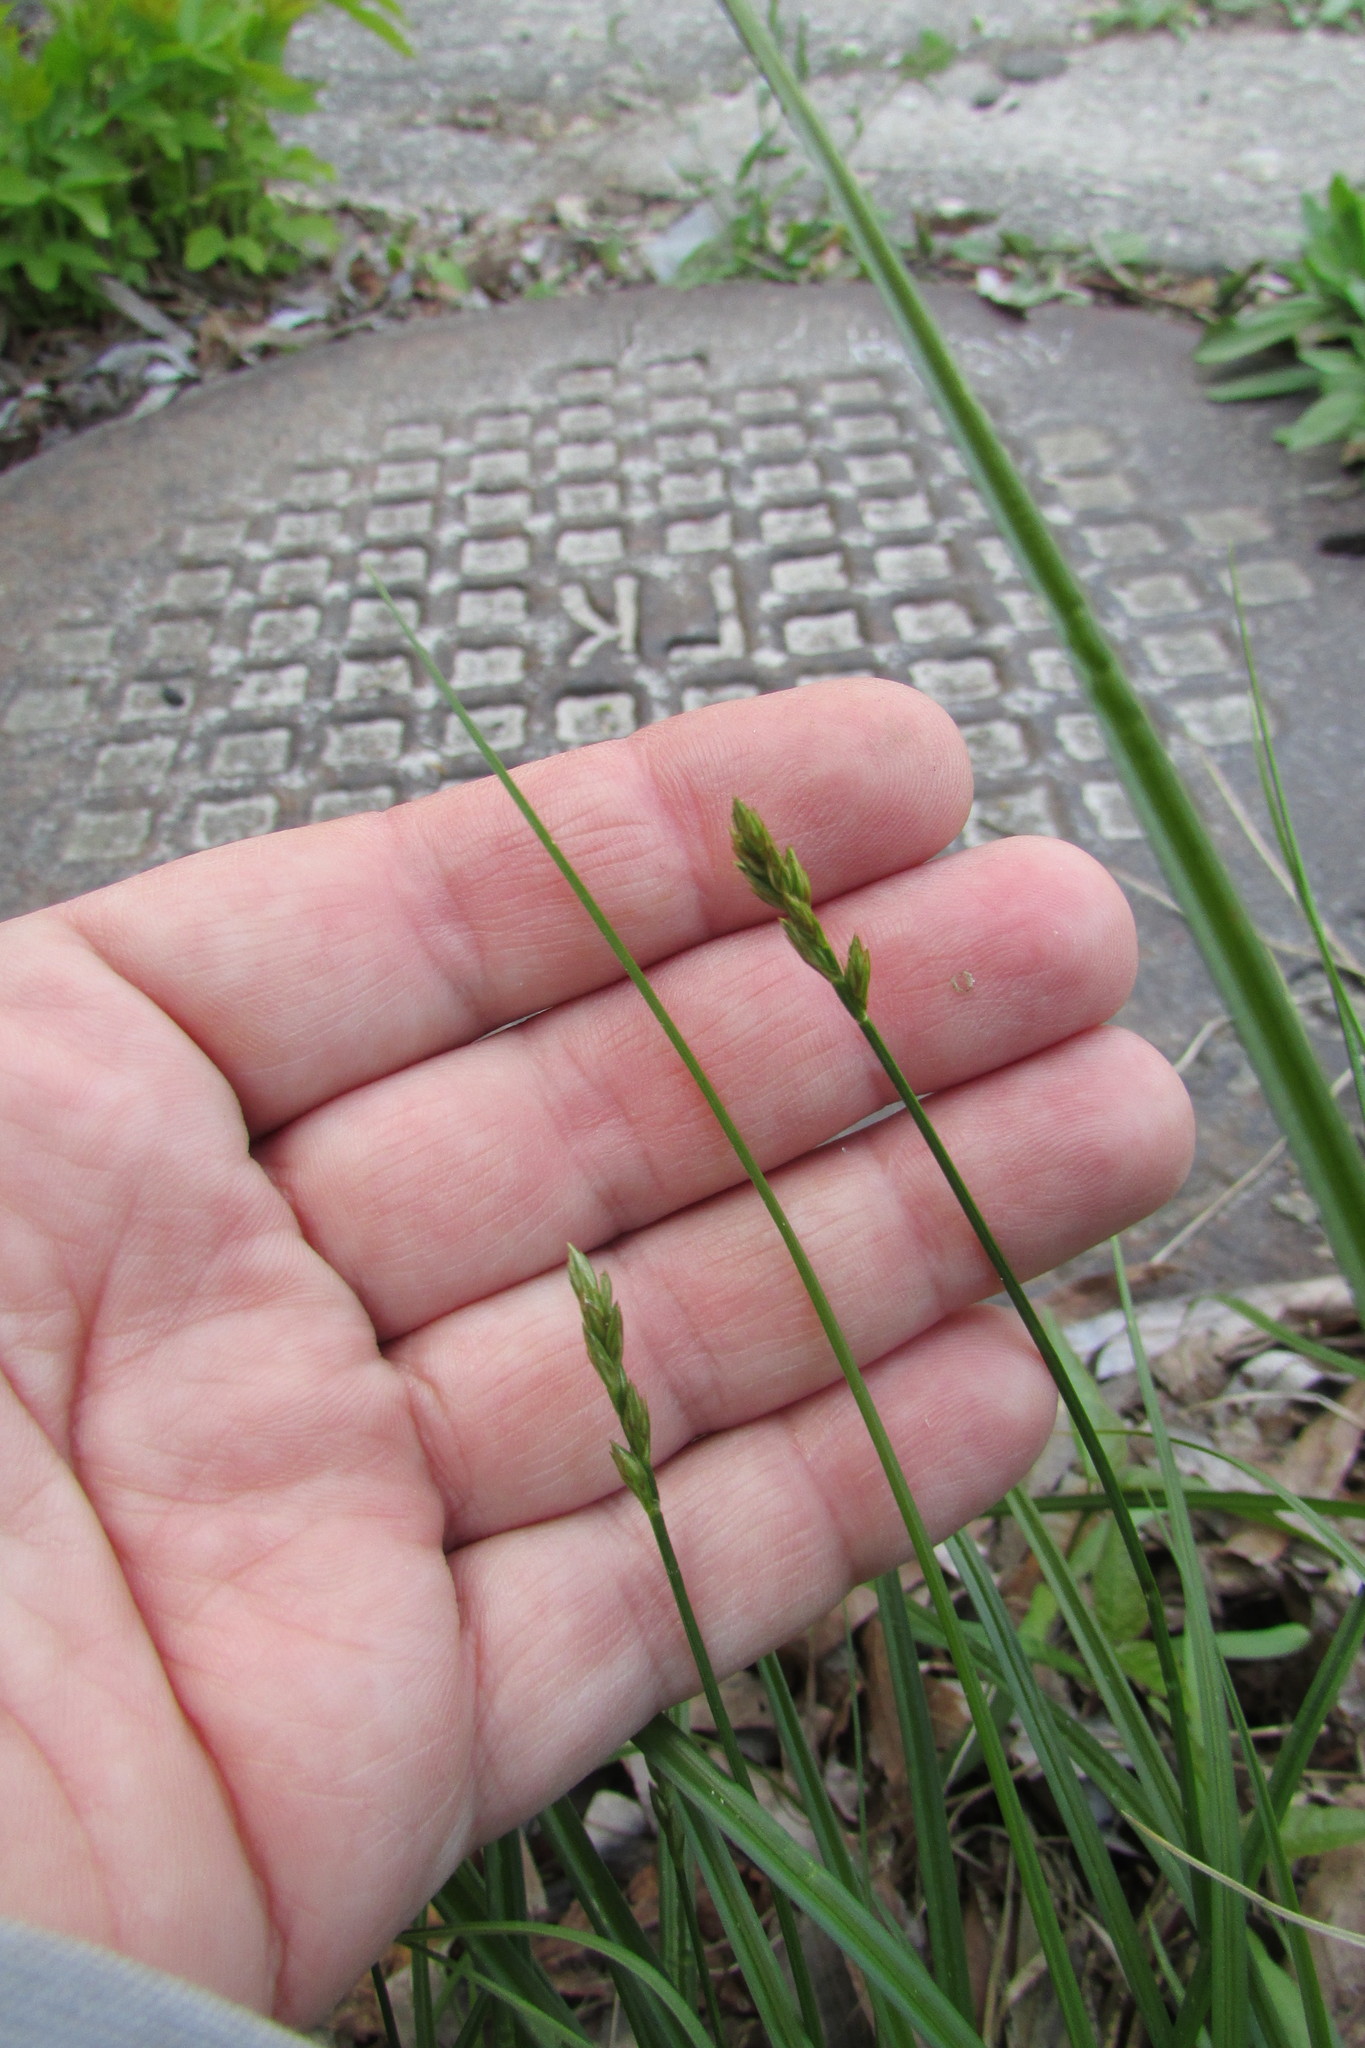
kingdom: Plantae
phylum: Tracheophyta
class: Liliopsida
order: Poales
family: Cyperaceae
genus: Carex
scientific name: Carex spicata
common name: Spiked sedge
